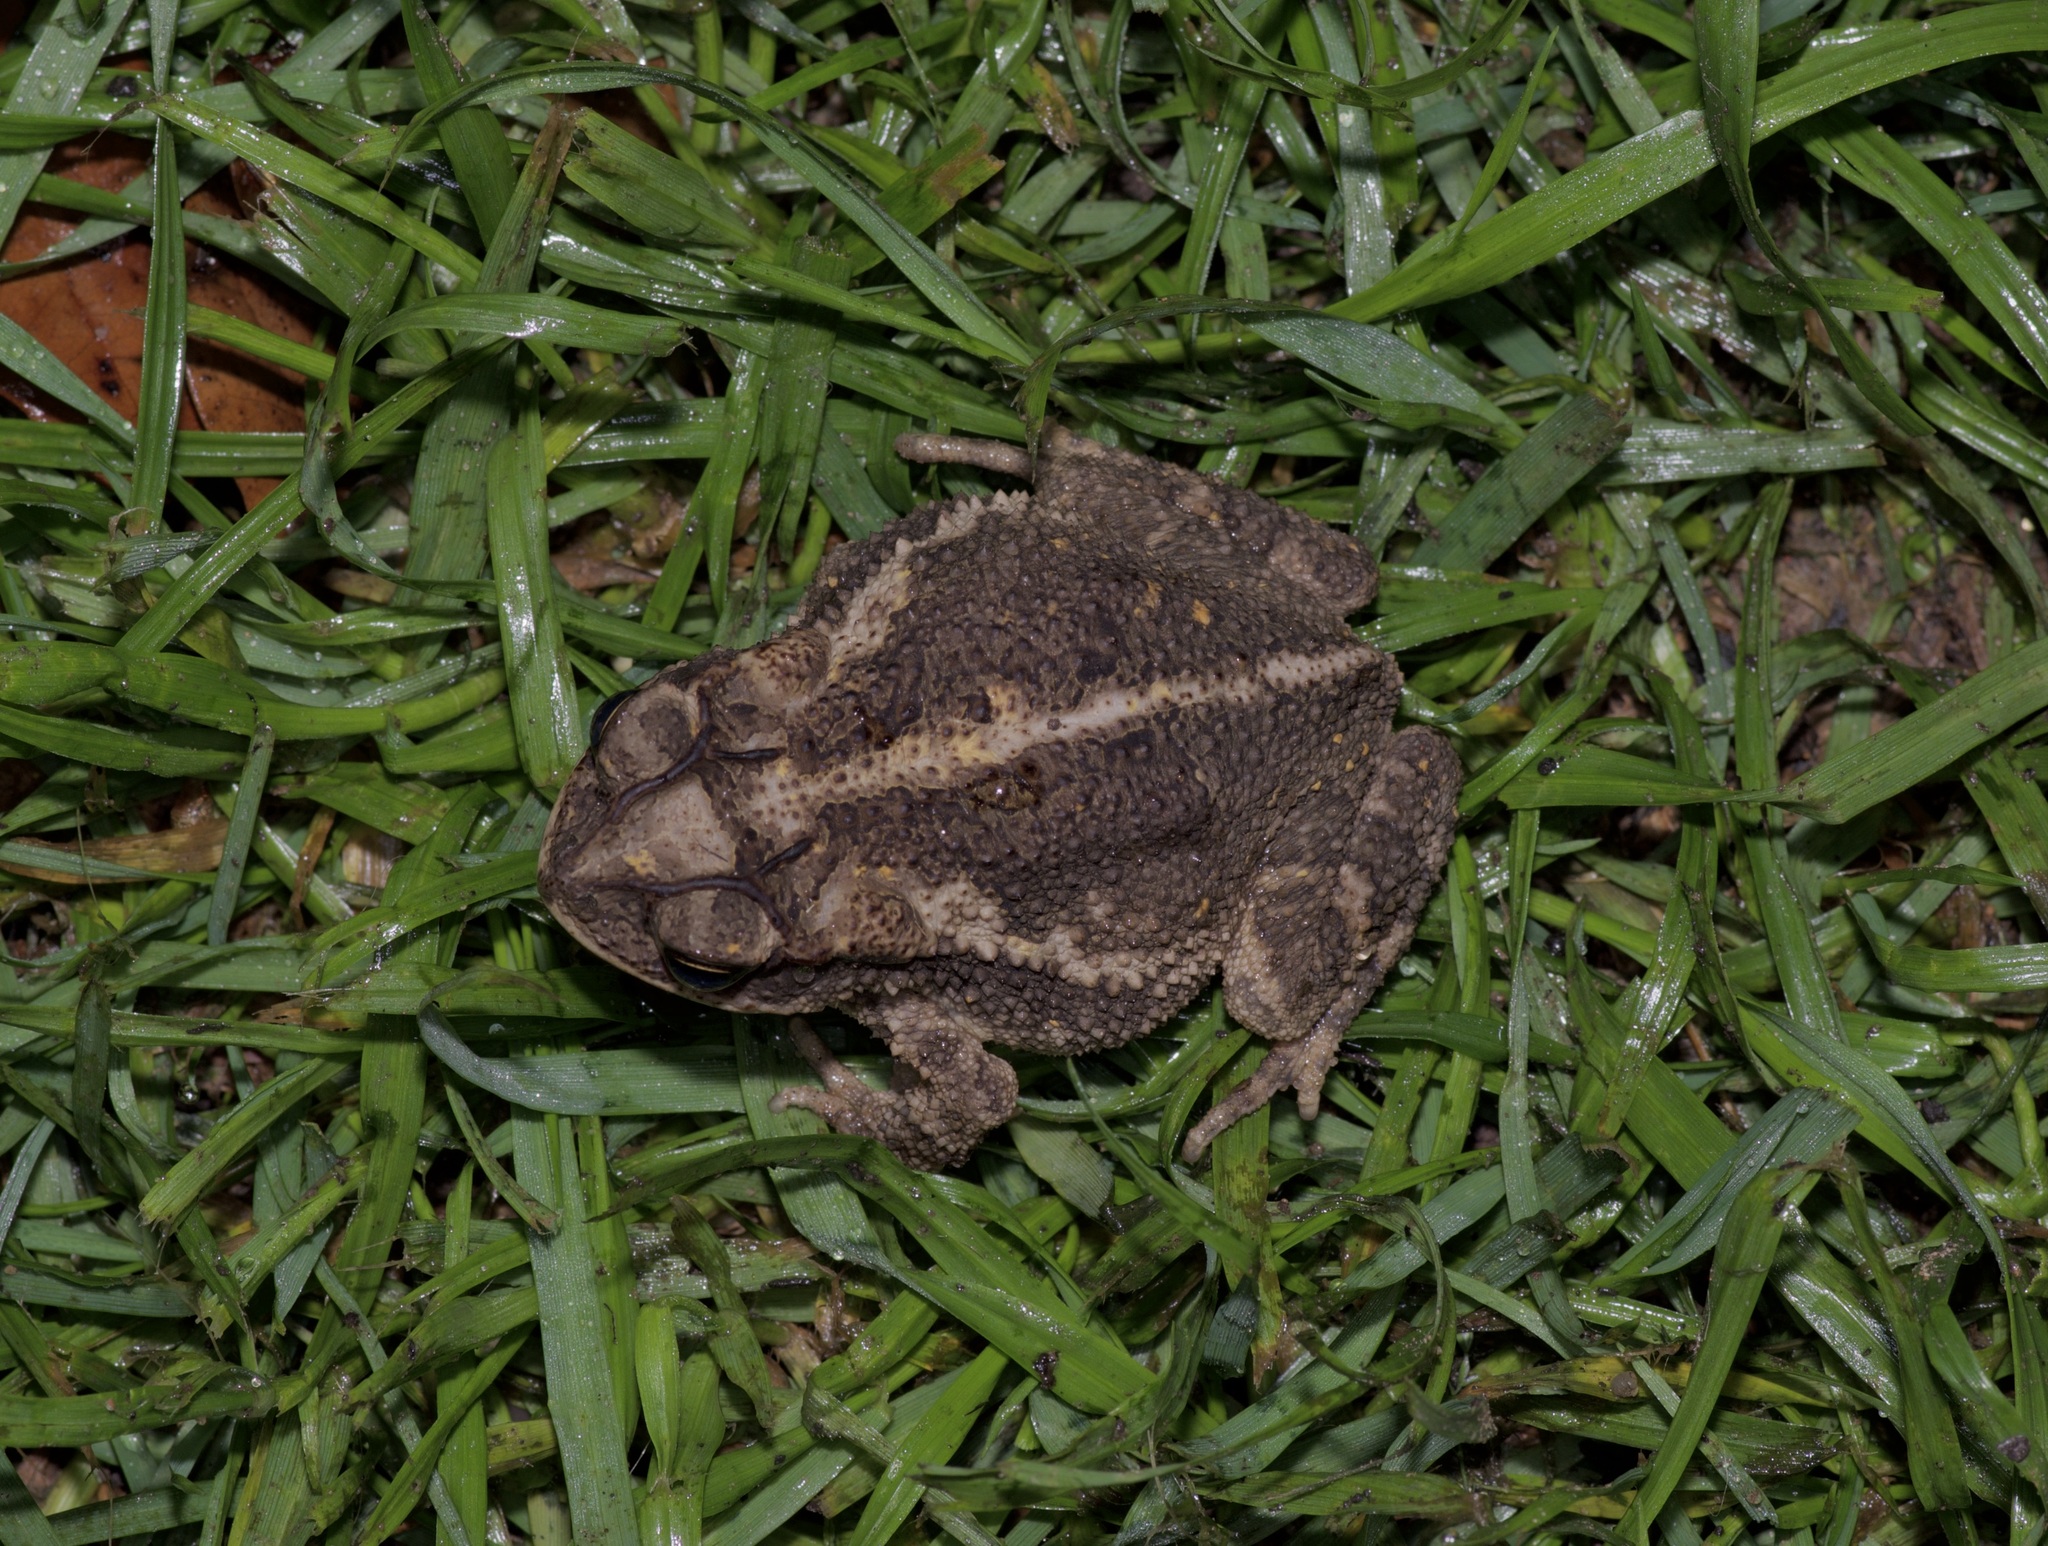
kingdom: Animalia
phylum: Chordata
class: Amphibia
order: Anura
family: Bufonidae
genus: Incilius
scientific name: Incilius nebulifer
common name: Gulf coast toad
